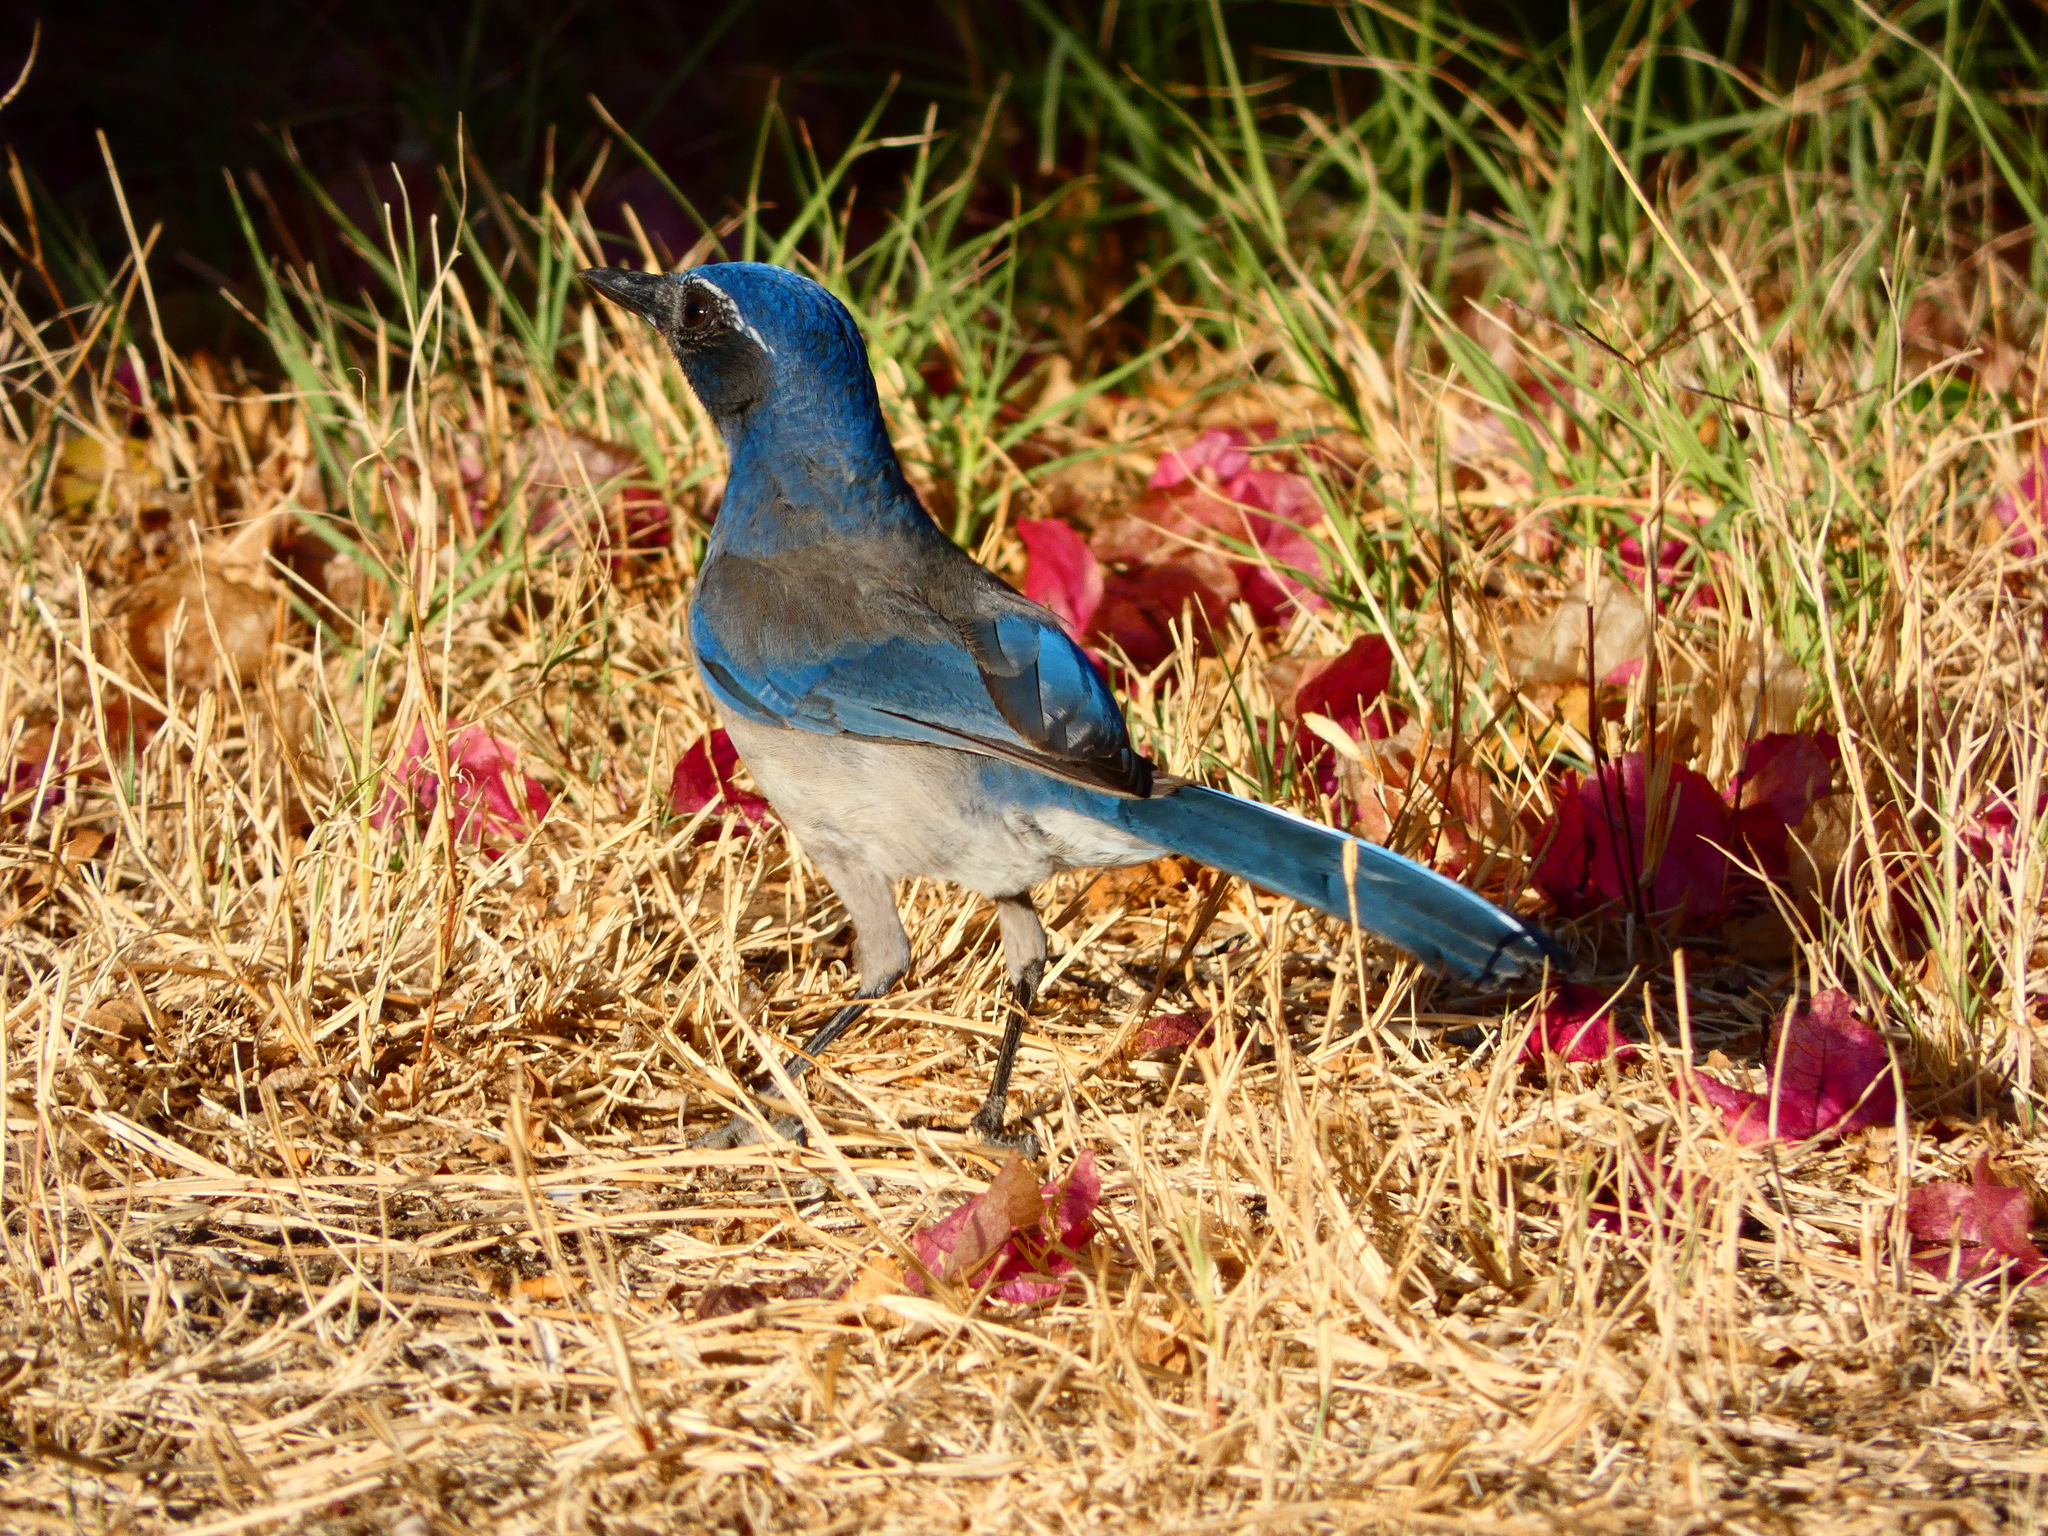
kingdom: Animalia
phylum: Chordata
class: Aves
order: Passeriformes
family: Corvidae
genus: Aphelocoma
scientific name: Aphelocoma californica
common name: California scrub-jay
